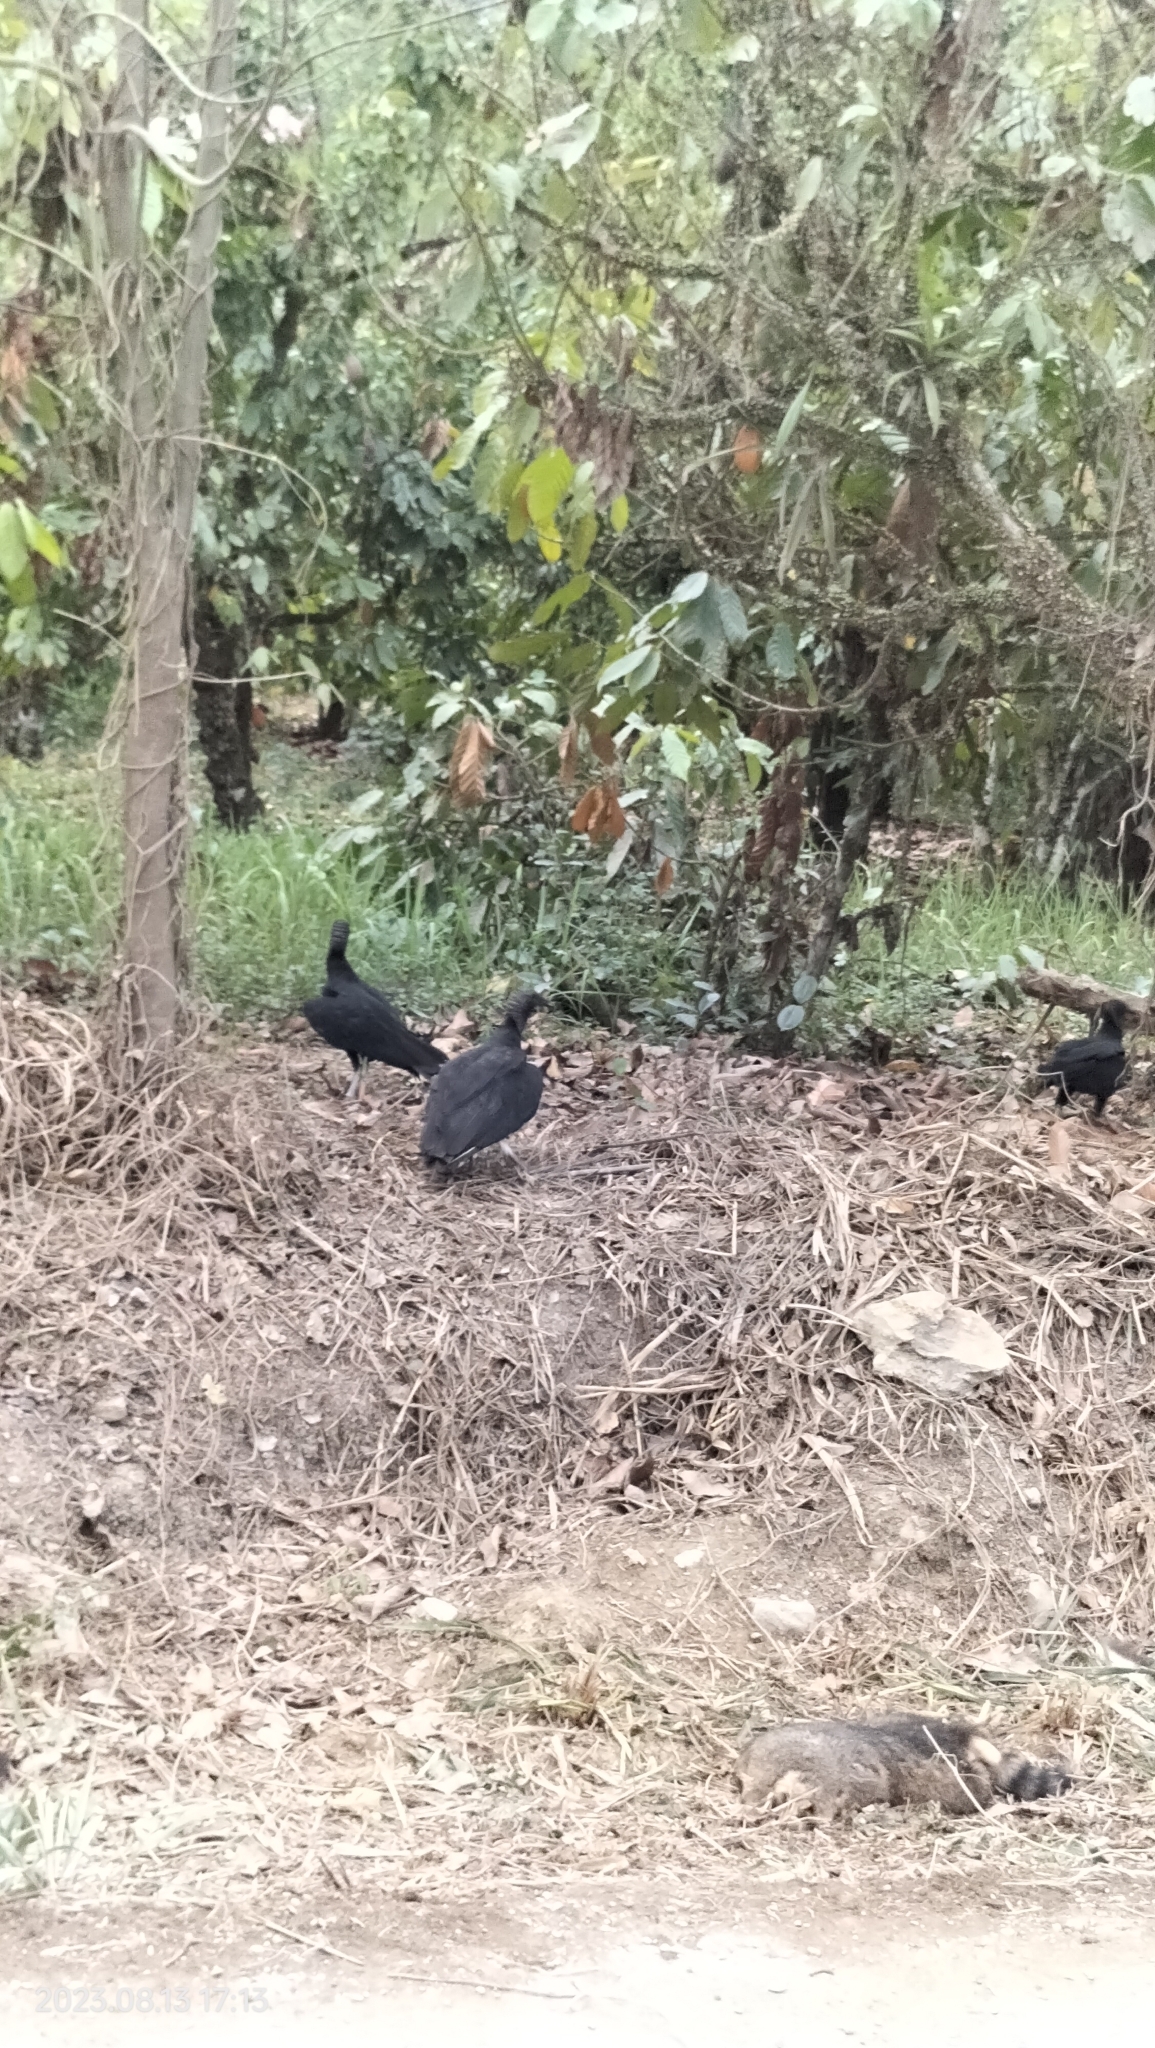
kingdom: Animalia
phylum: Chordata
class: Aves
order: Accipitriformes
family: Cathartidae
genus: Coragyps
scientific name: Coragyps atratus
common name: Black vulture
